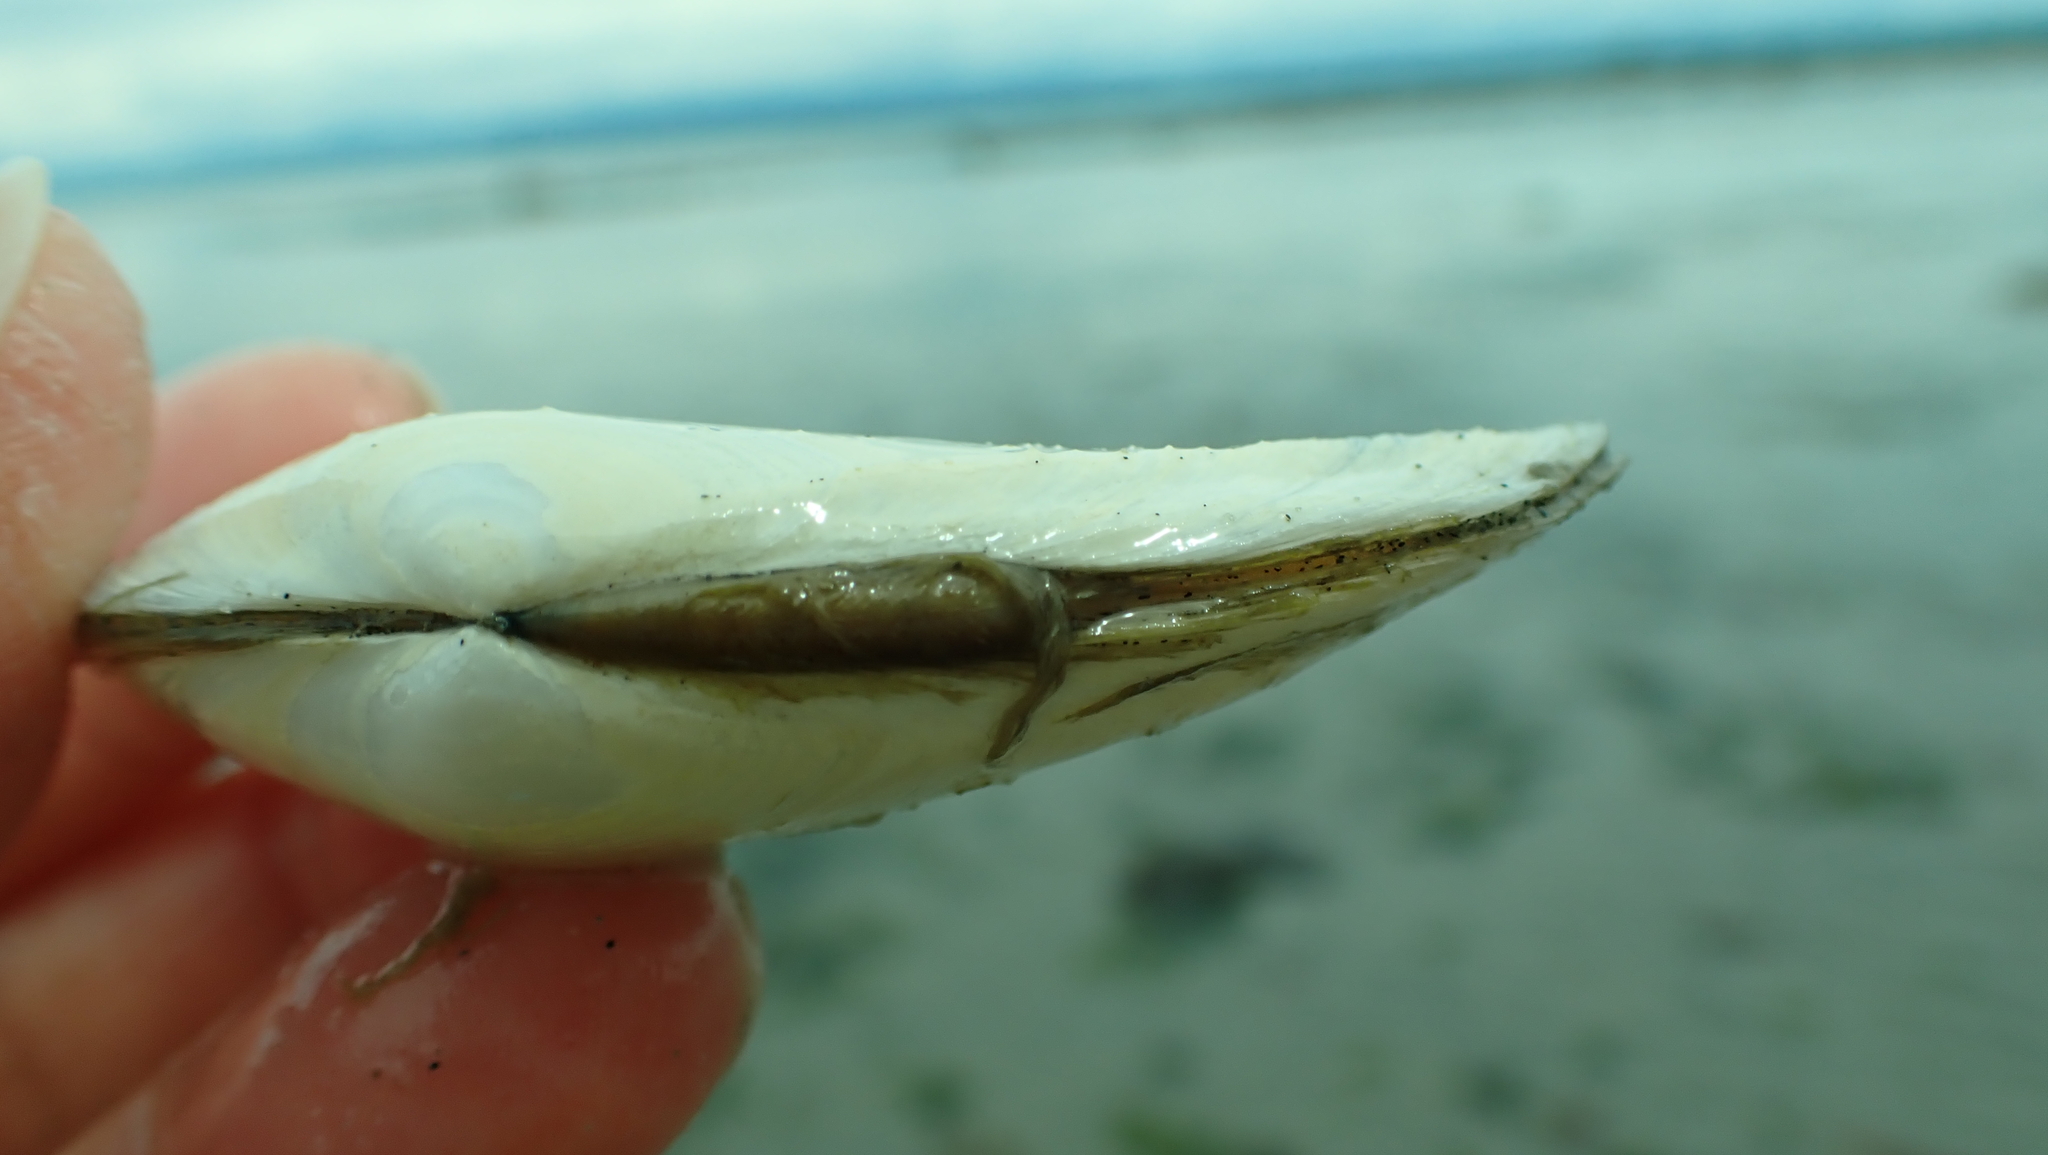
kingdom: Animalia
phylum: Mollusca
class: Bivalvia
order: Cardiida
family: Tellinidae
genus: Macoma
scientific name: Macoma nasuta
